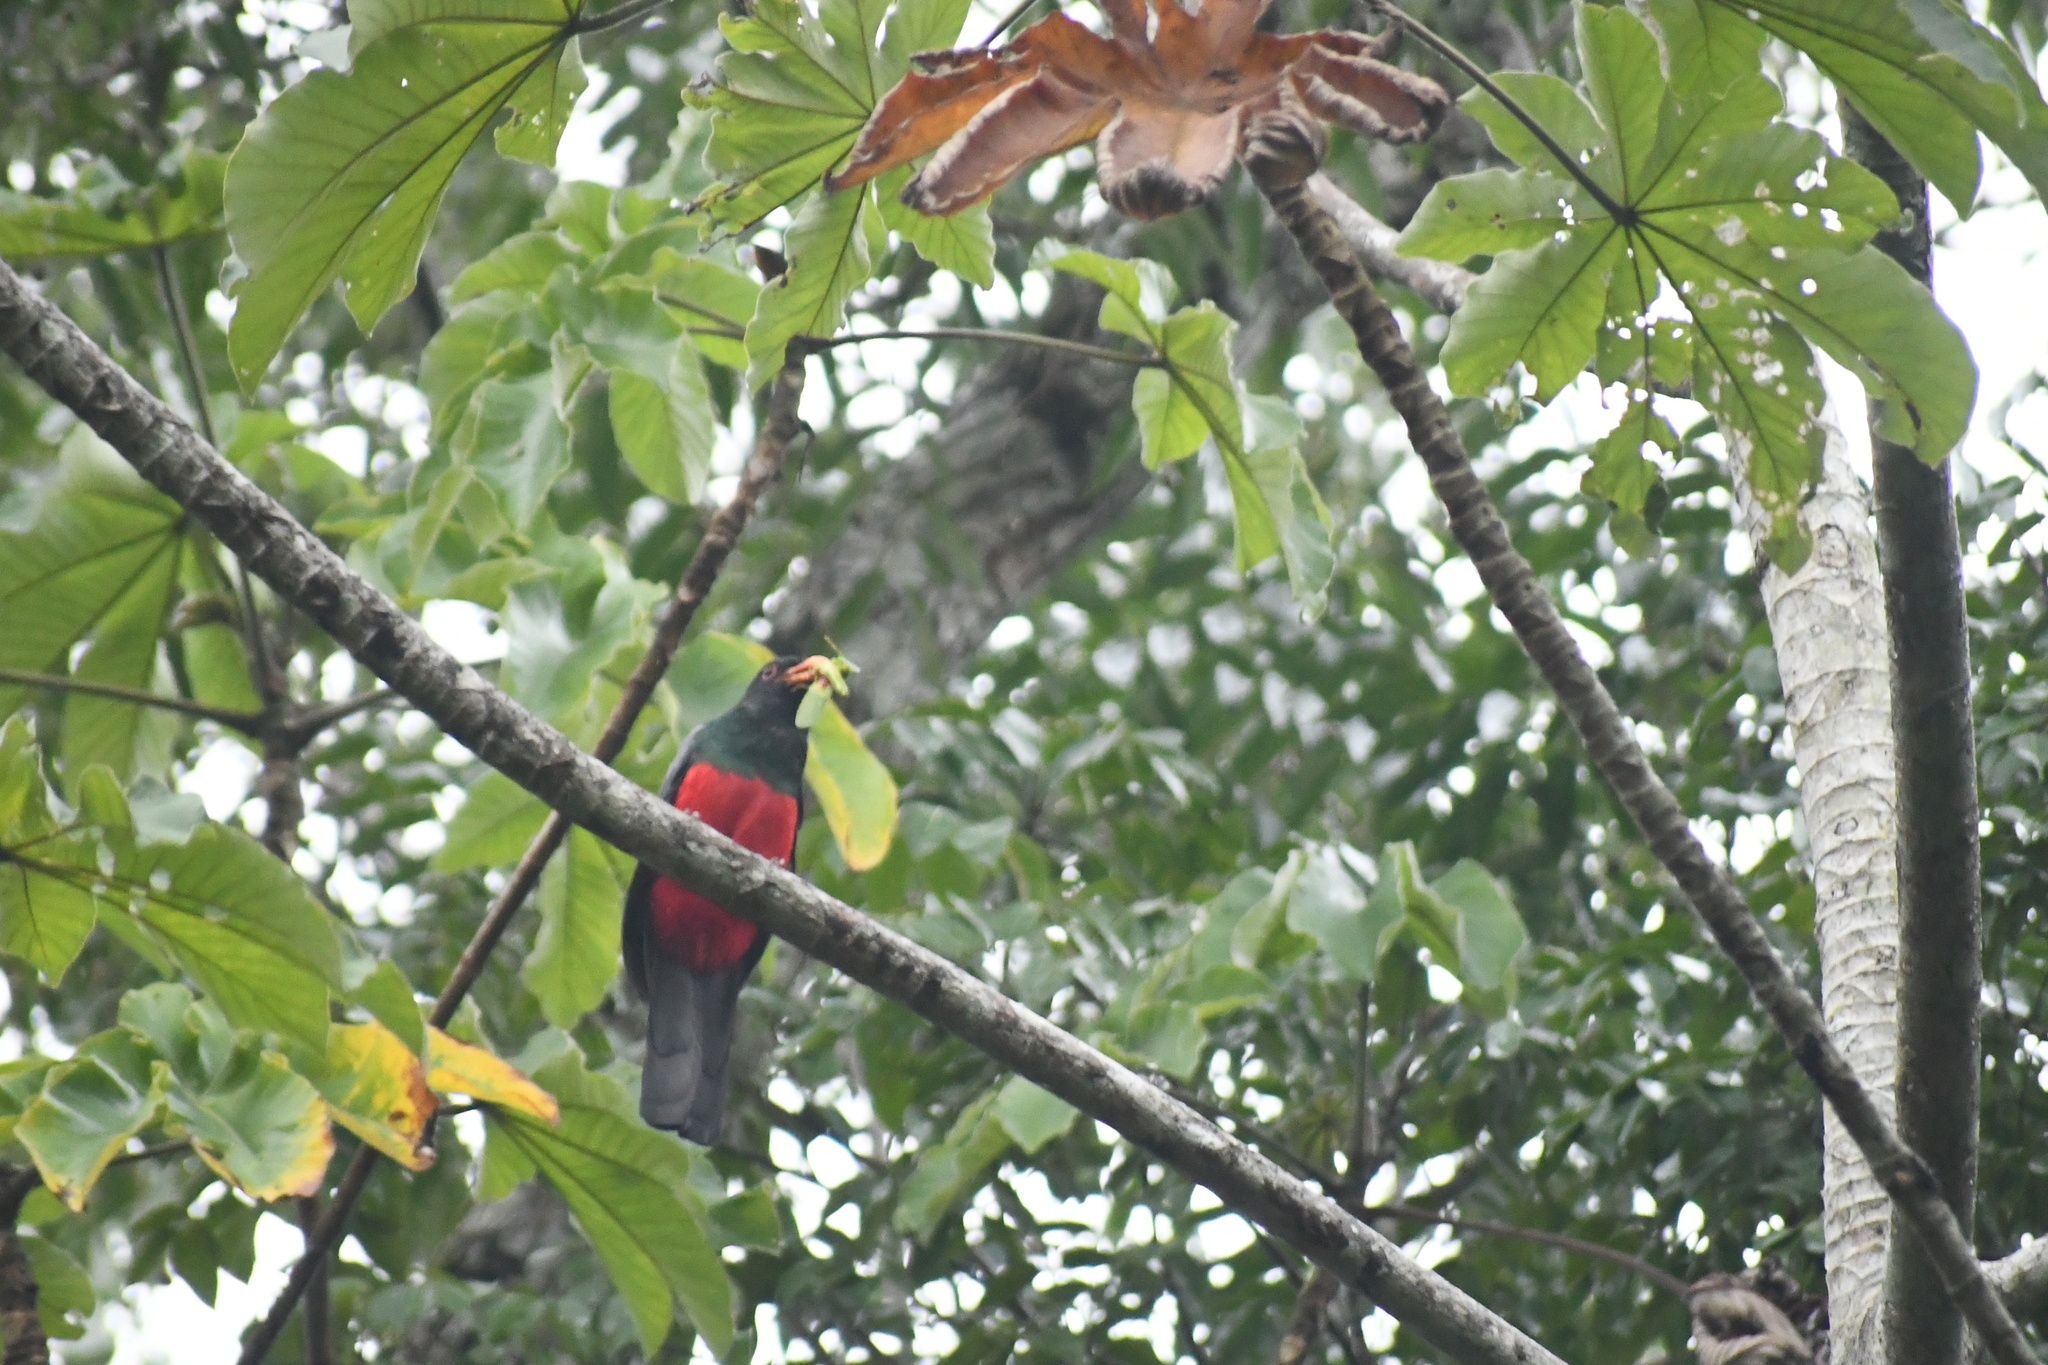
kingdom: Animalia
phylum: Chordata
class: Aves
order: Trogoniformes
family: Trogonidae
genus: Trogon
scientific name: Trogon massena
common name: Slaty-tailed trogon
